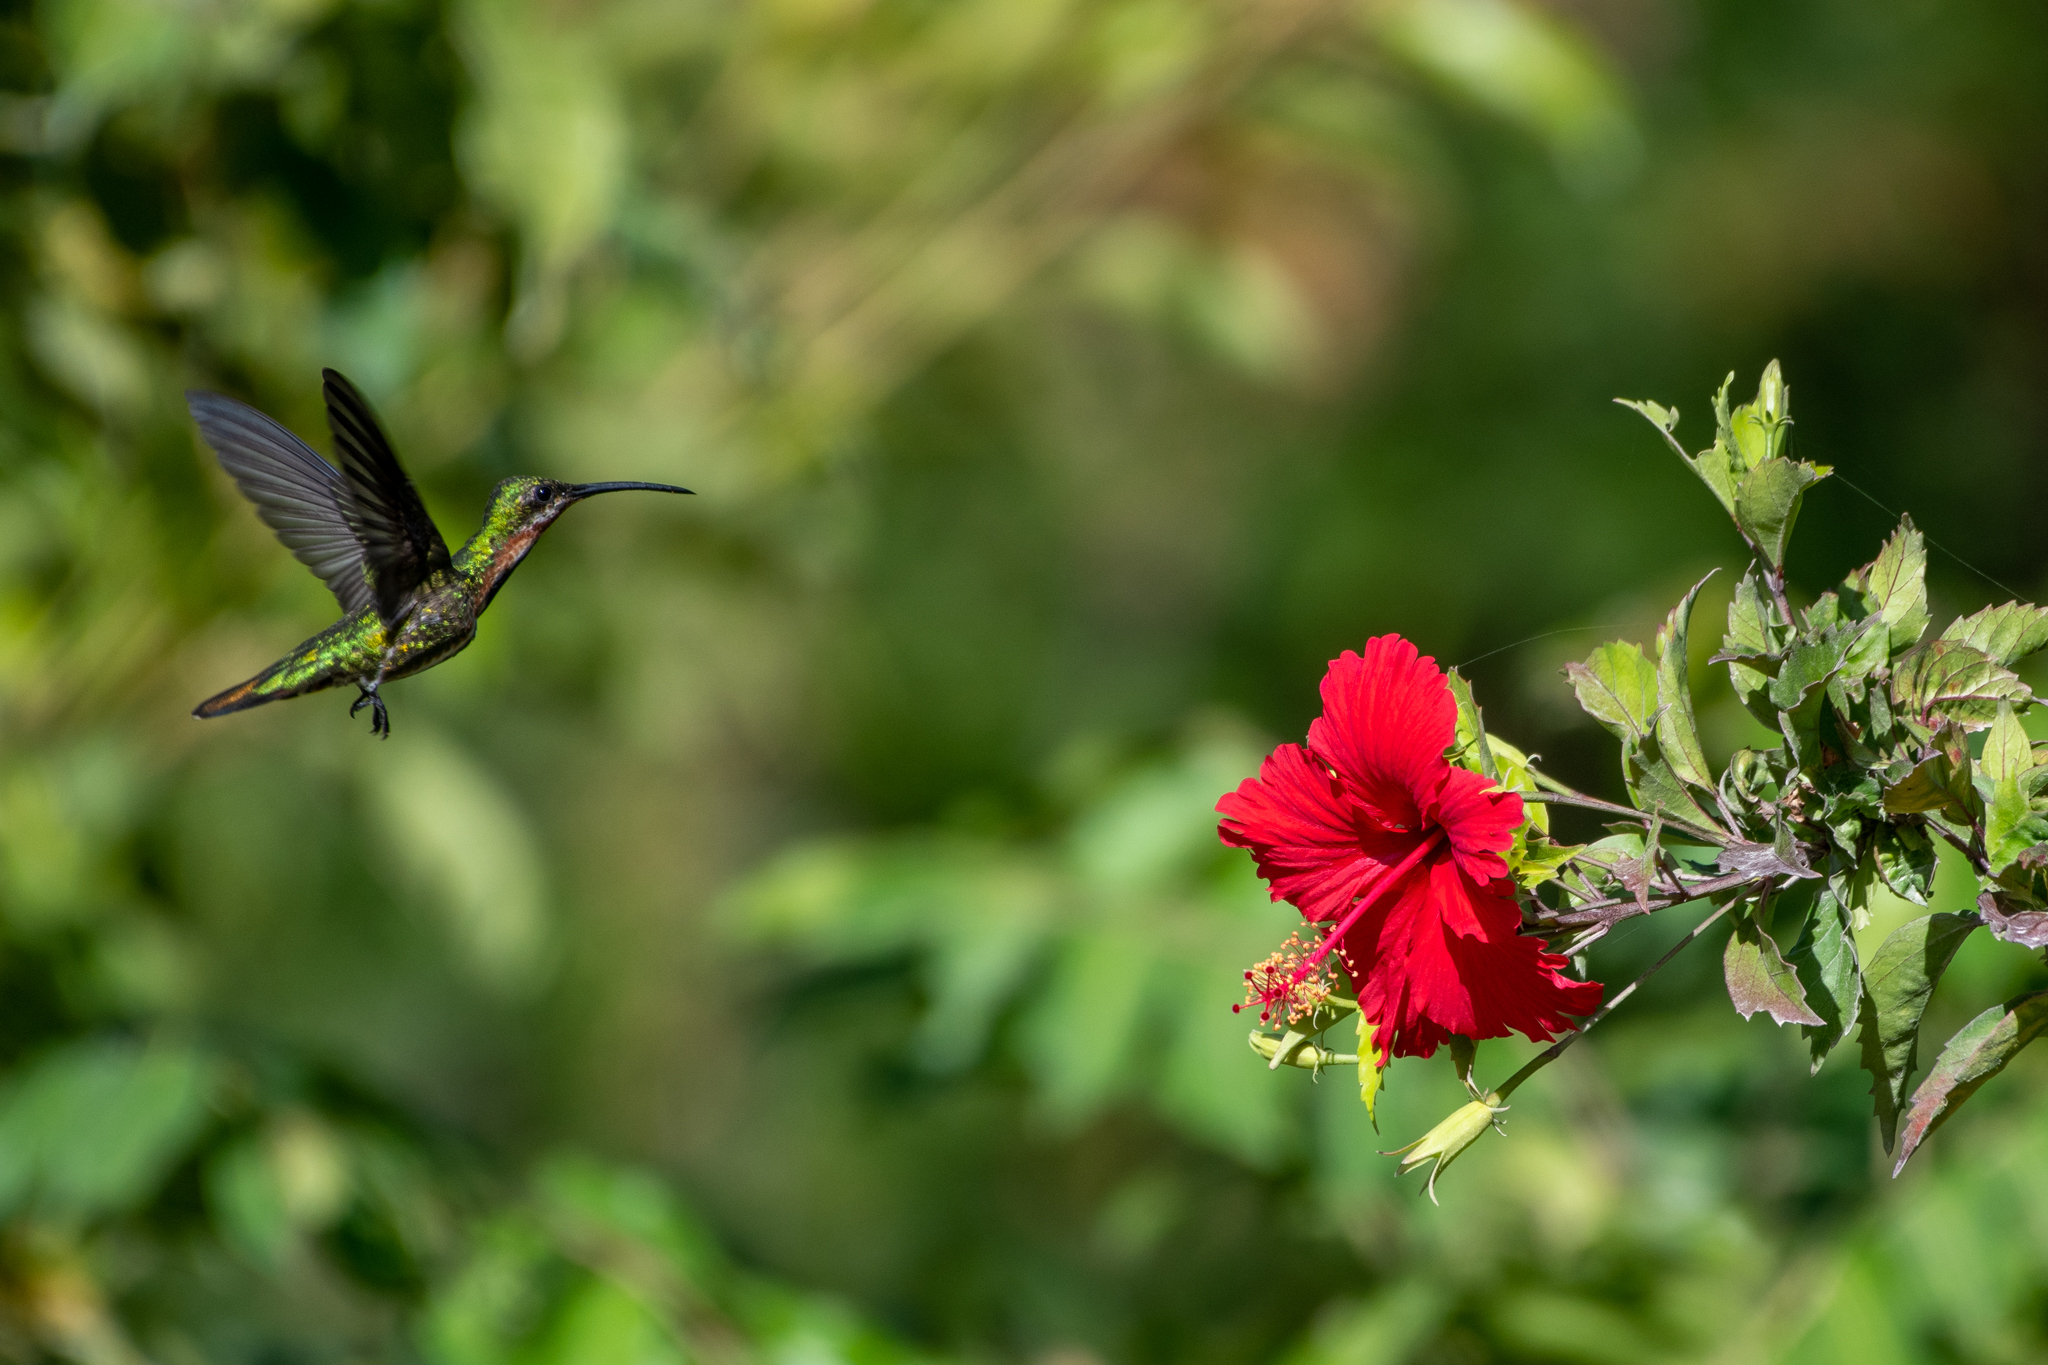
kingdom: Animalia
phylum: Chordata
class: Aves
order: Apodiformes
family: Trochilidae
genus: Anthracothorax
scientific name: Anthracothorax prevostii
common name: Green-breasted mango
